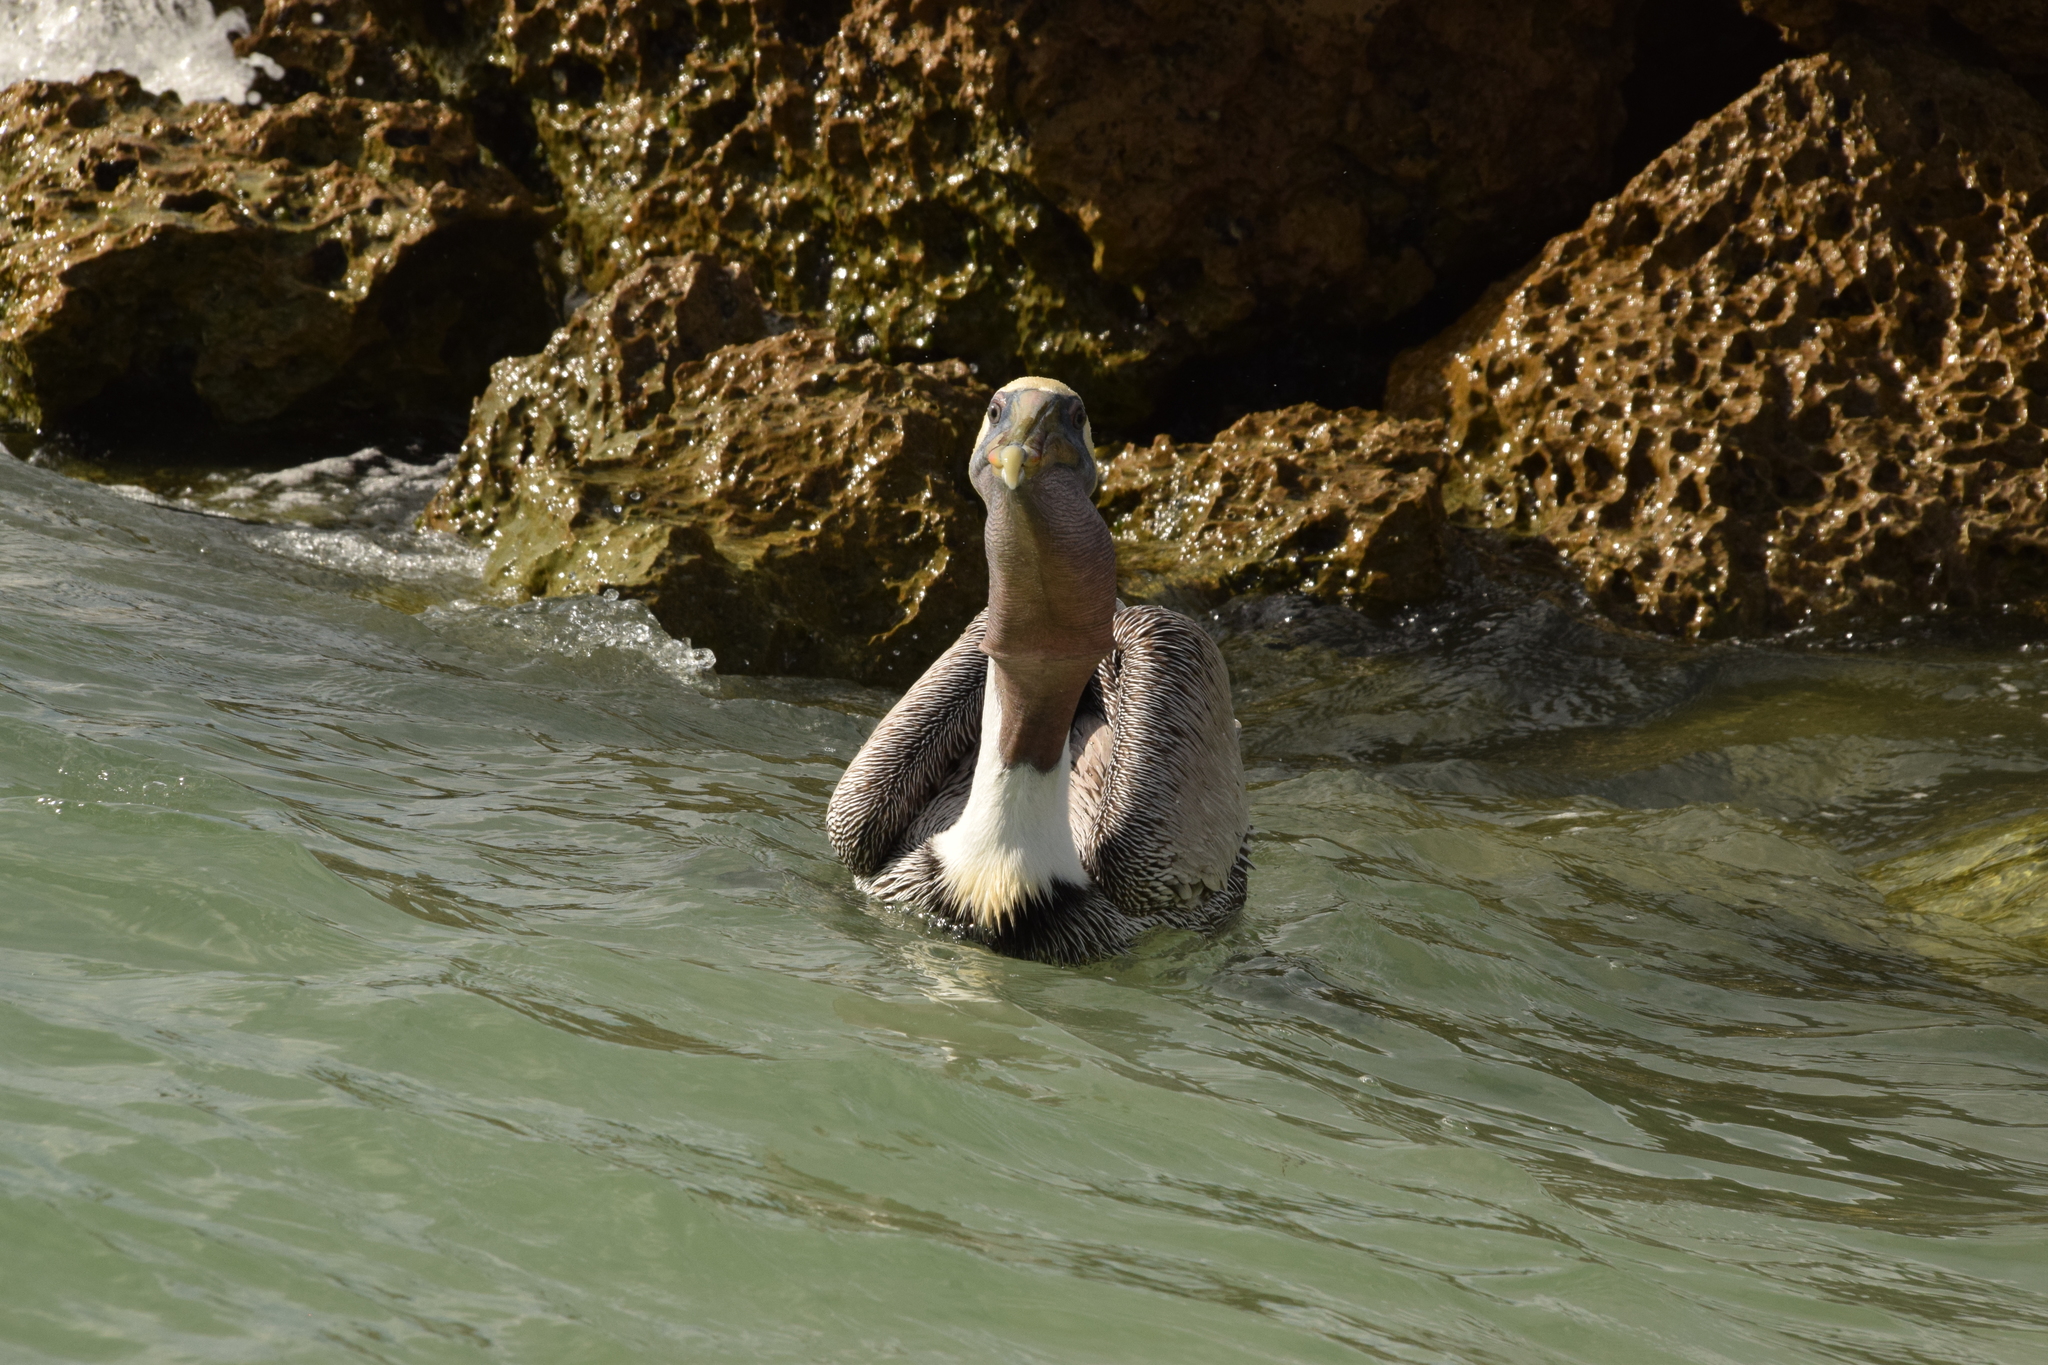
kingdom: Animalia
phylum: Chordata
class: Aves
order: Pelecaniformes
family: Pelecanidae
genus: Pelecanus
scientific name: Pelecanus occidentalis
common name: Brown pelican
